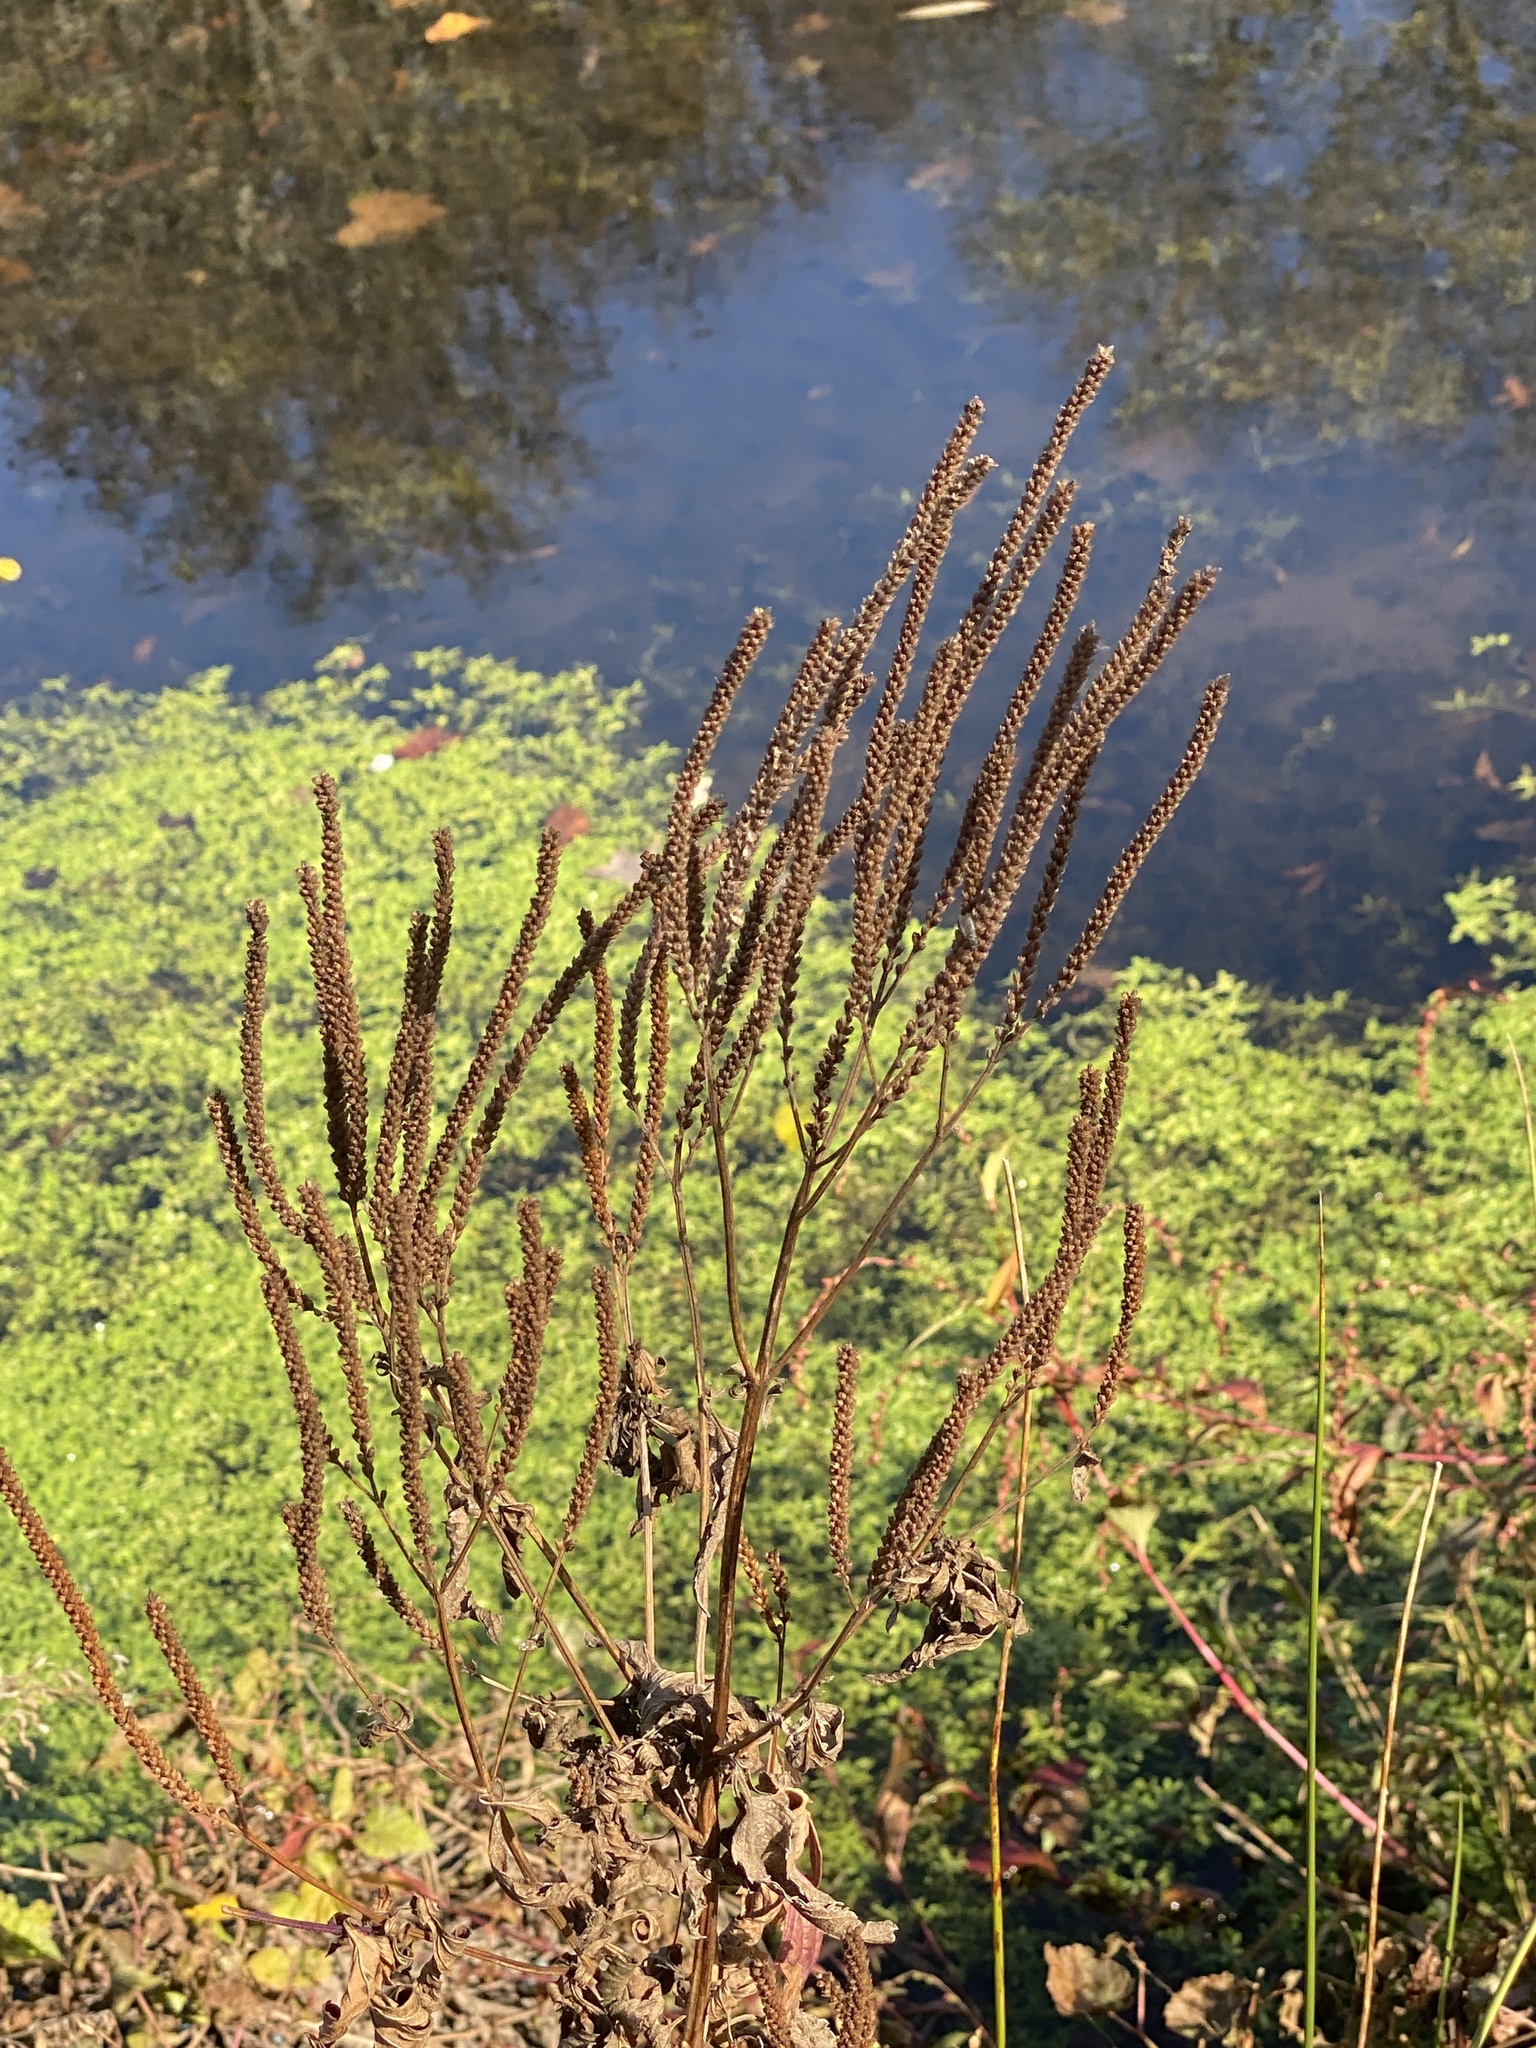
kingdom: Plantae
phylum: Tracheophyta
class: Magnoliopsida
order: Lamiales
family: Verbenaceae
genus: Verbena
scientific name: Verbena hastata
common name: American blue vervain
